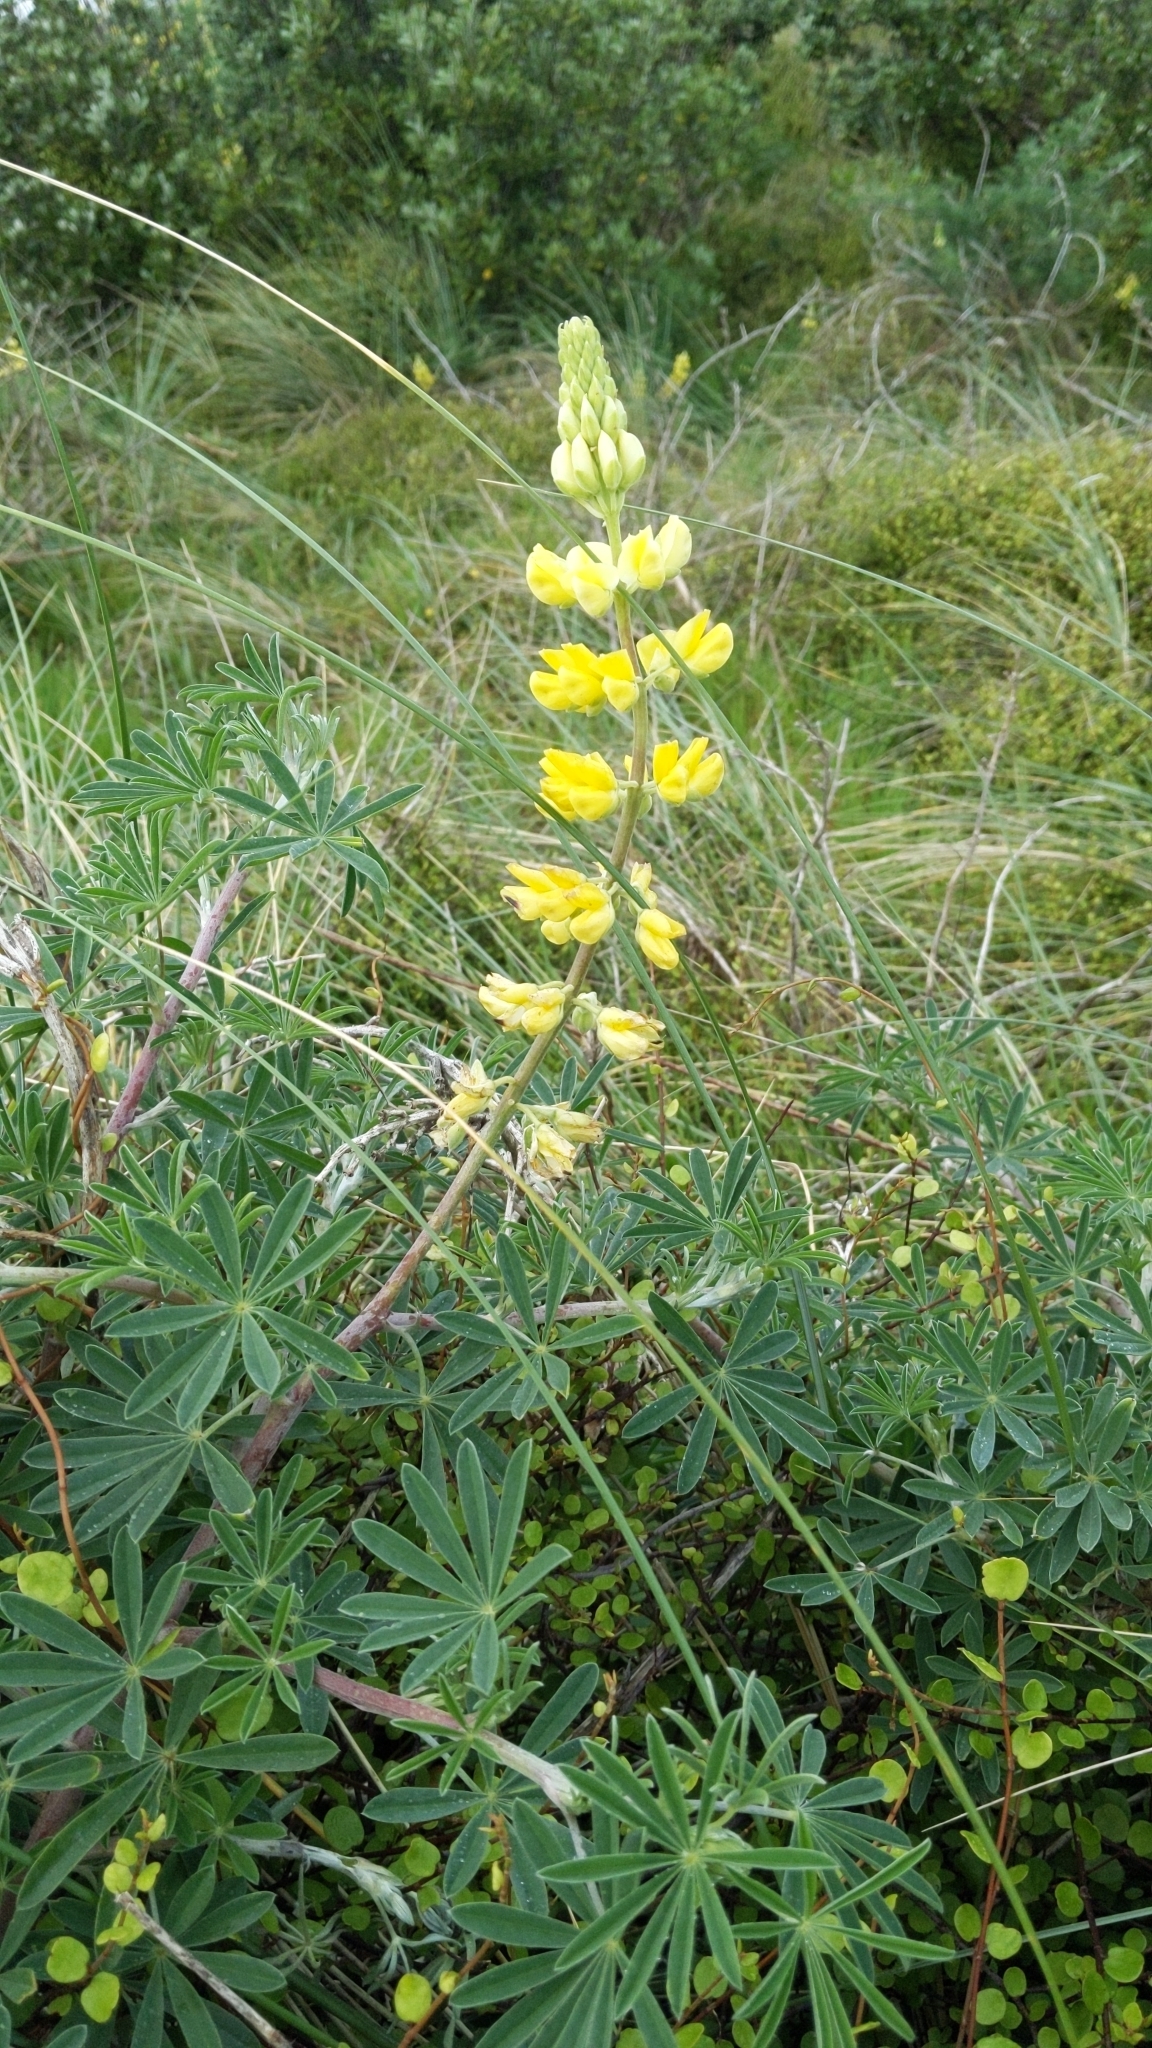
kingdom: Plantae
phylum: Tracheophyta
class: Magnoliopsida
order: Fabales
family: Fabaceae
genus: Lupinus
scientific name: Lupinus arboreus
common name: Yellow bush lupine
